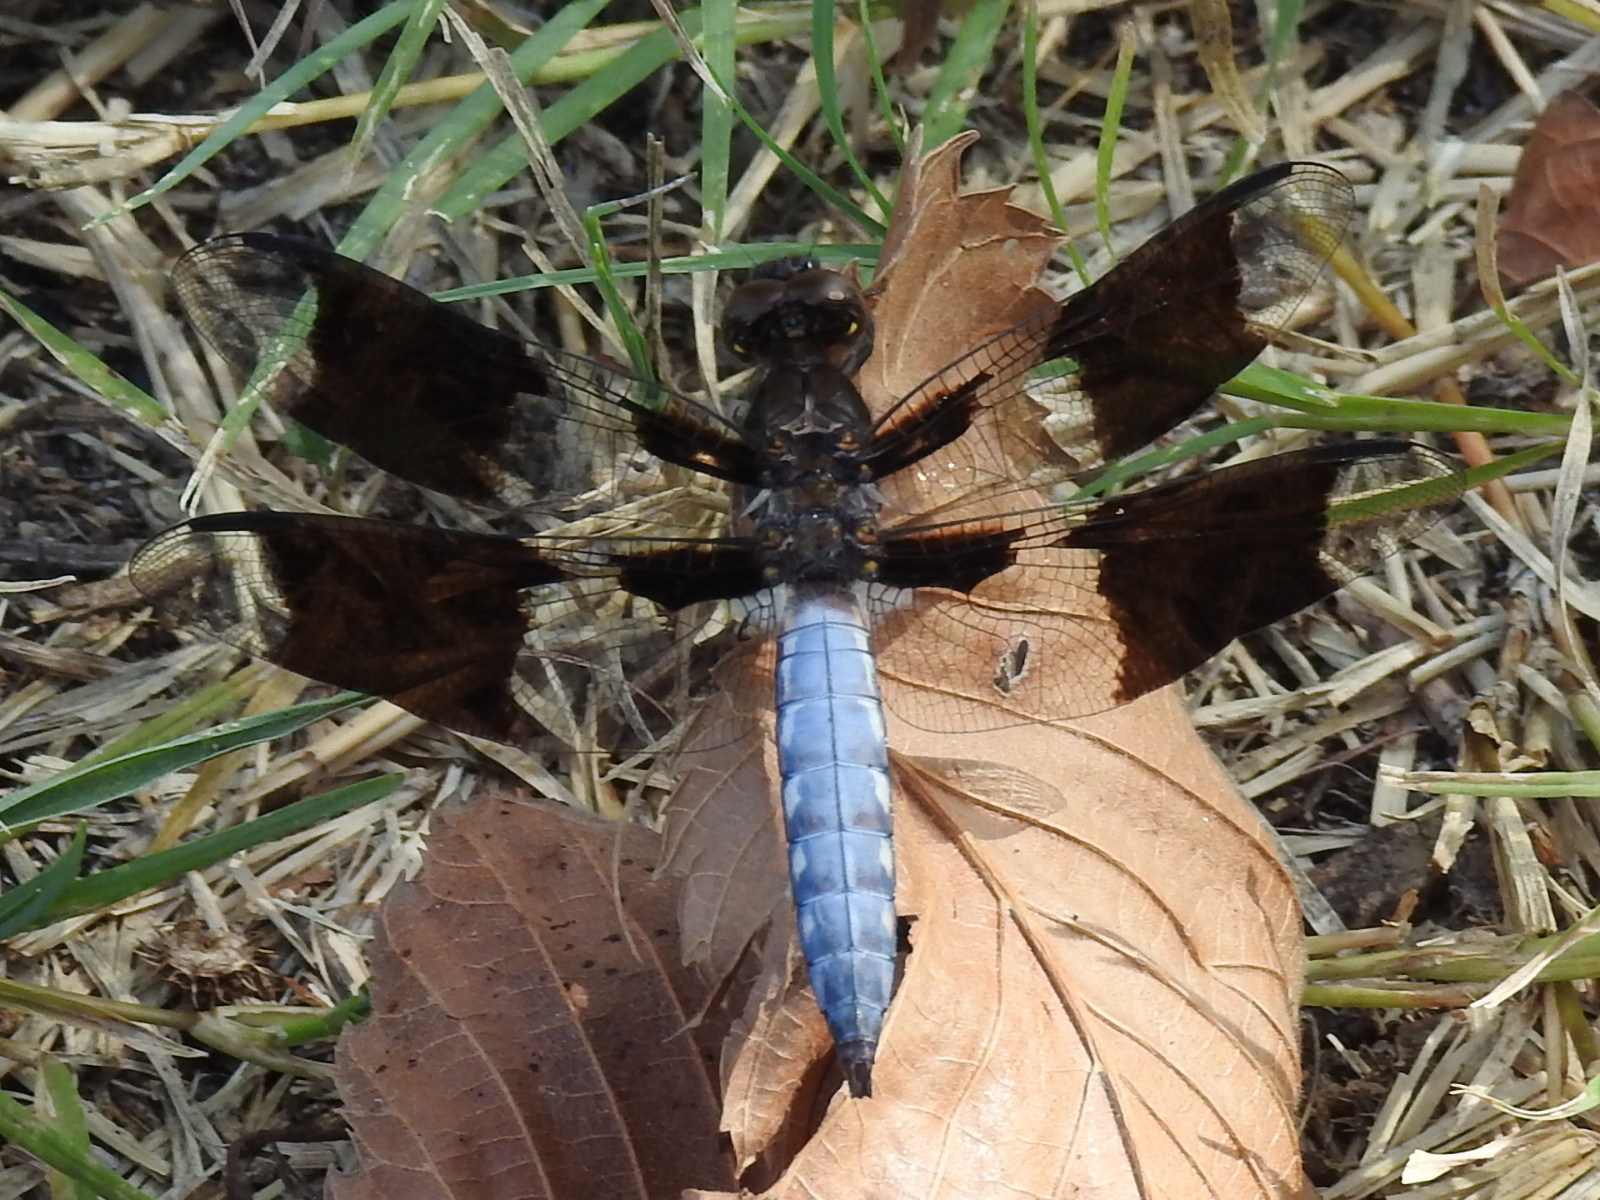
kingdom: Animalia
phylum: Arthropoda
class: Insecta
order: Odonata
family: Libellulidae
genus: Plathemis
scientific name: Plathemis lydia
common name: Common whitetail
